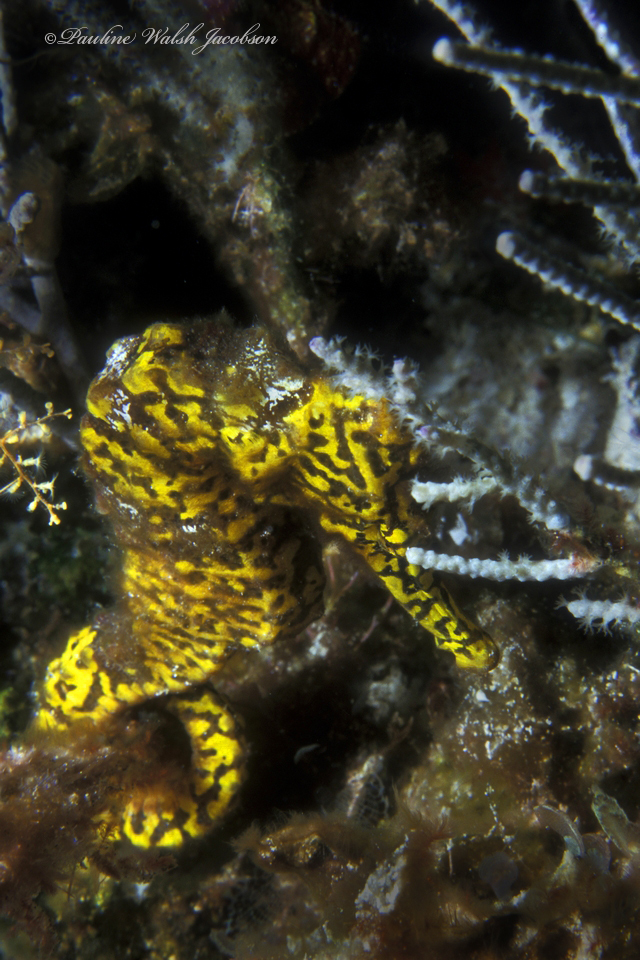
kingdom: Animalia
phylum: Chordata
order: Syngnathiformes
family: Syngnathidae
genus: Hippocampus
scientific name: Hippocampus reidi
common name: Slender seahorse
